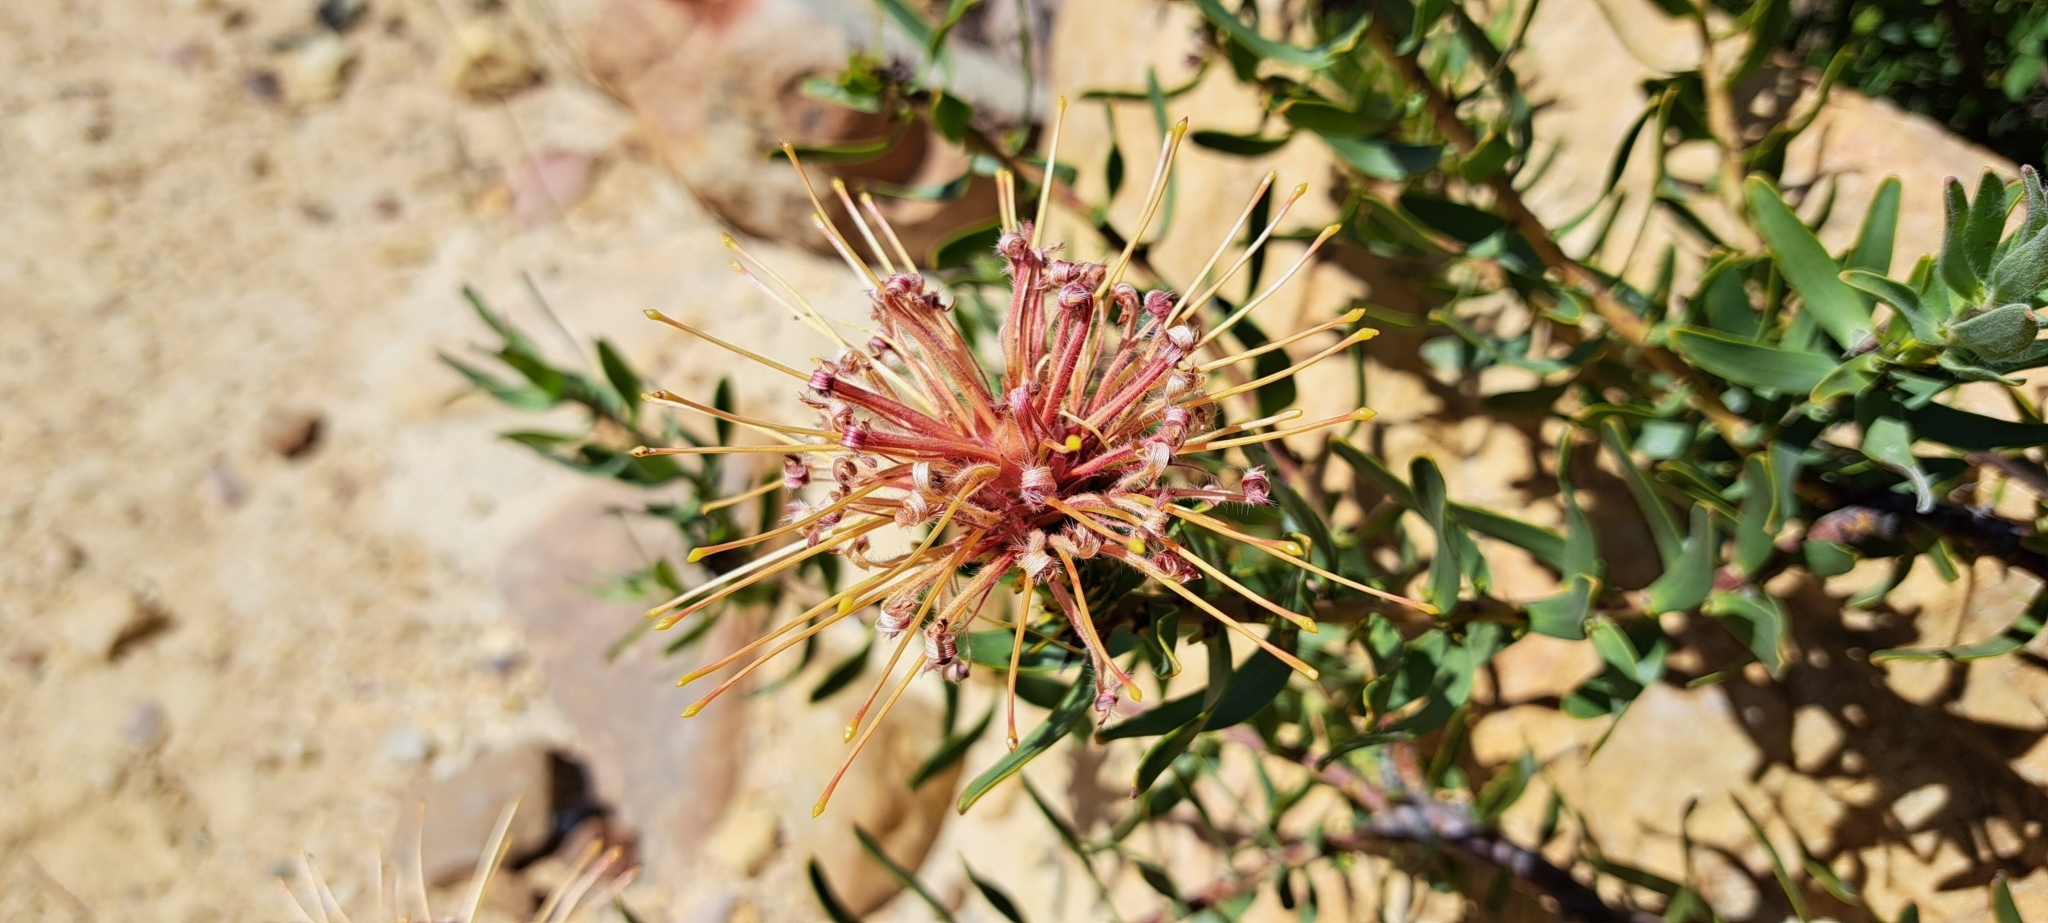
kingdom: Plantae
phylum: Tracheophyta
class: Magnoliopsida
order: Proteales
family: Proteaceae
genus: Leucospermum
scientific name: Leucospermum tottum
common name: Ribbon pincushion
